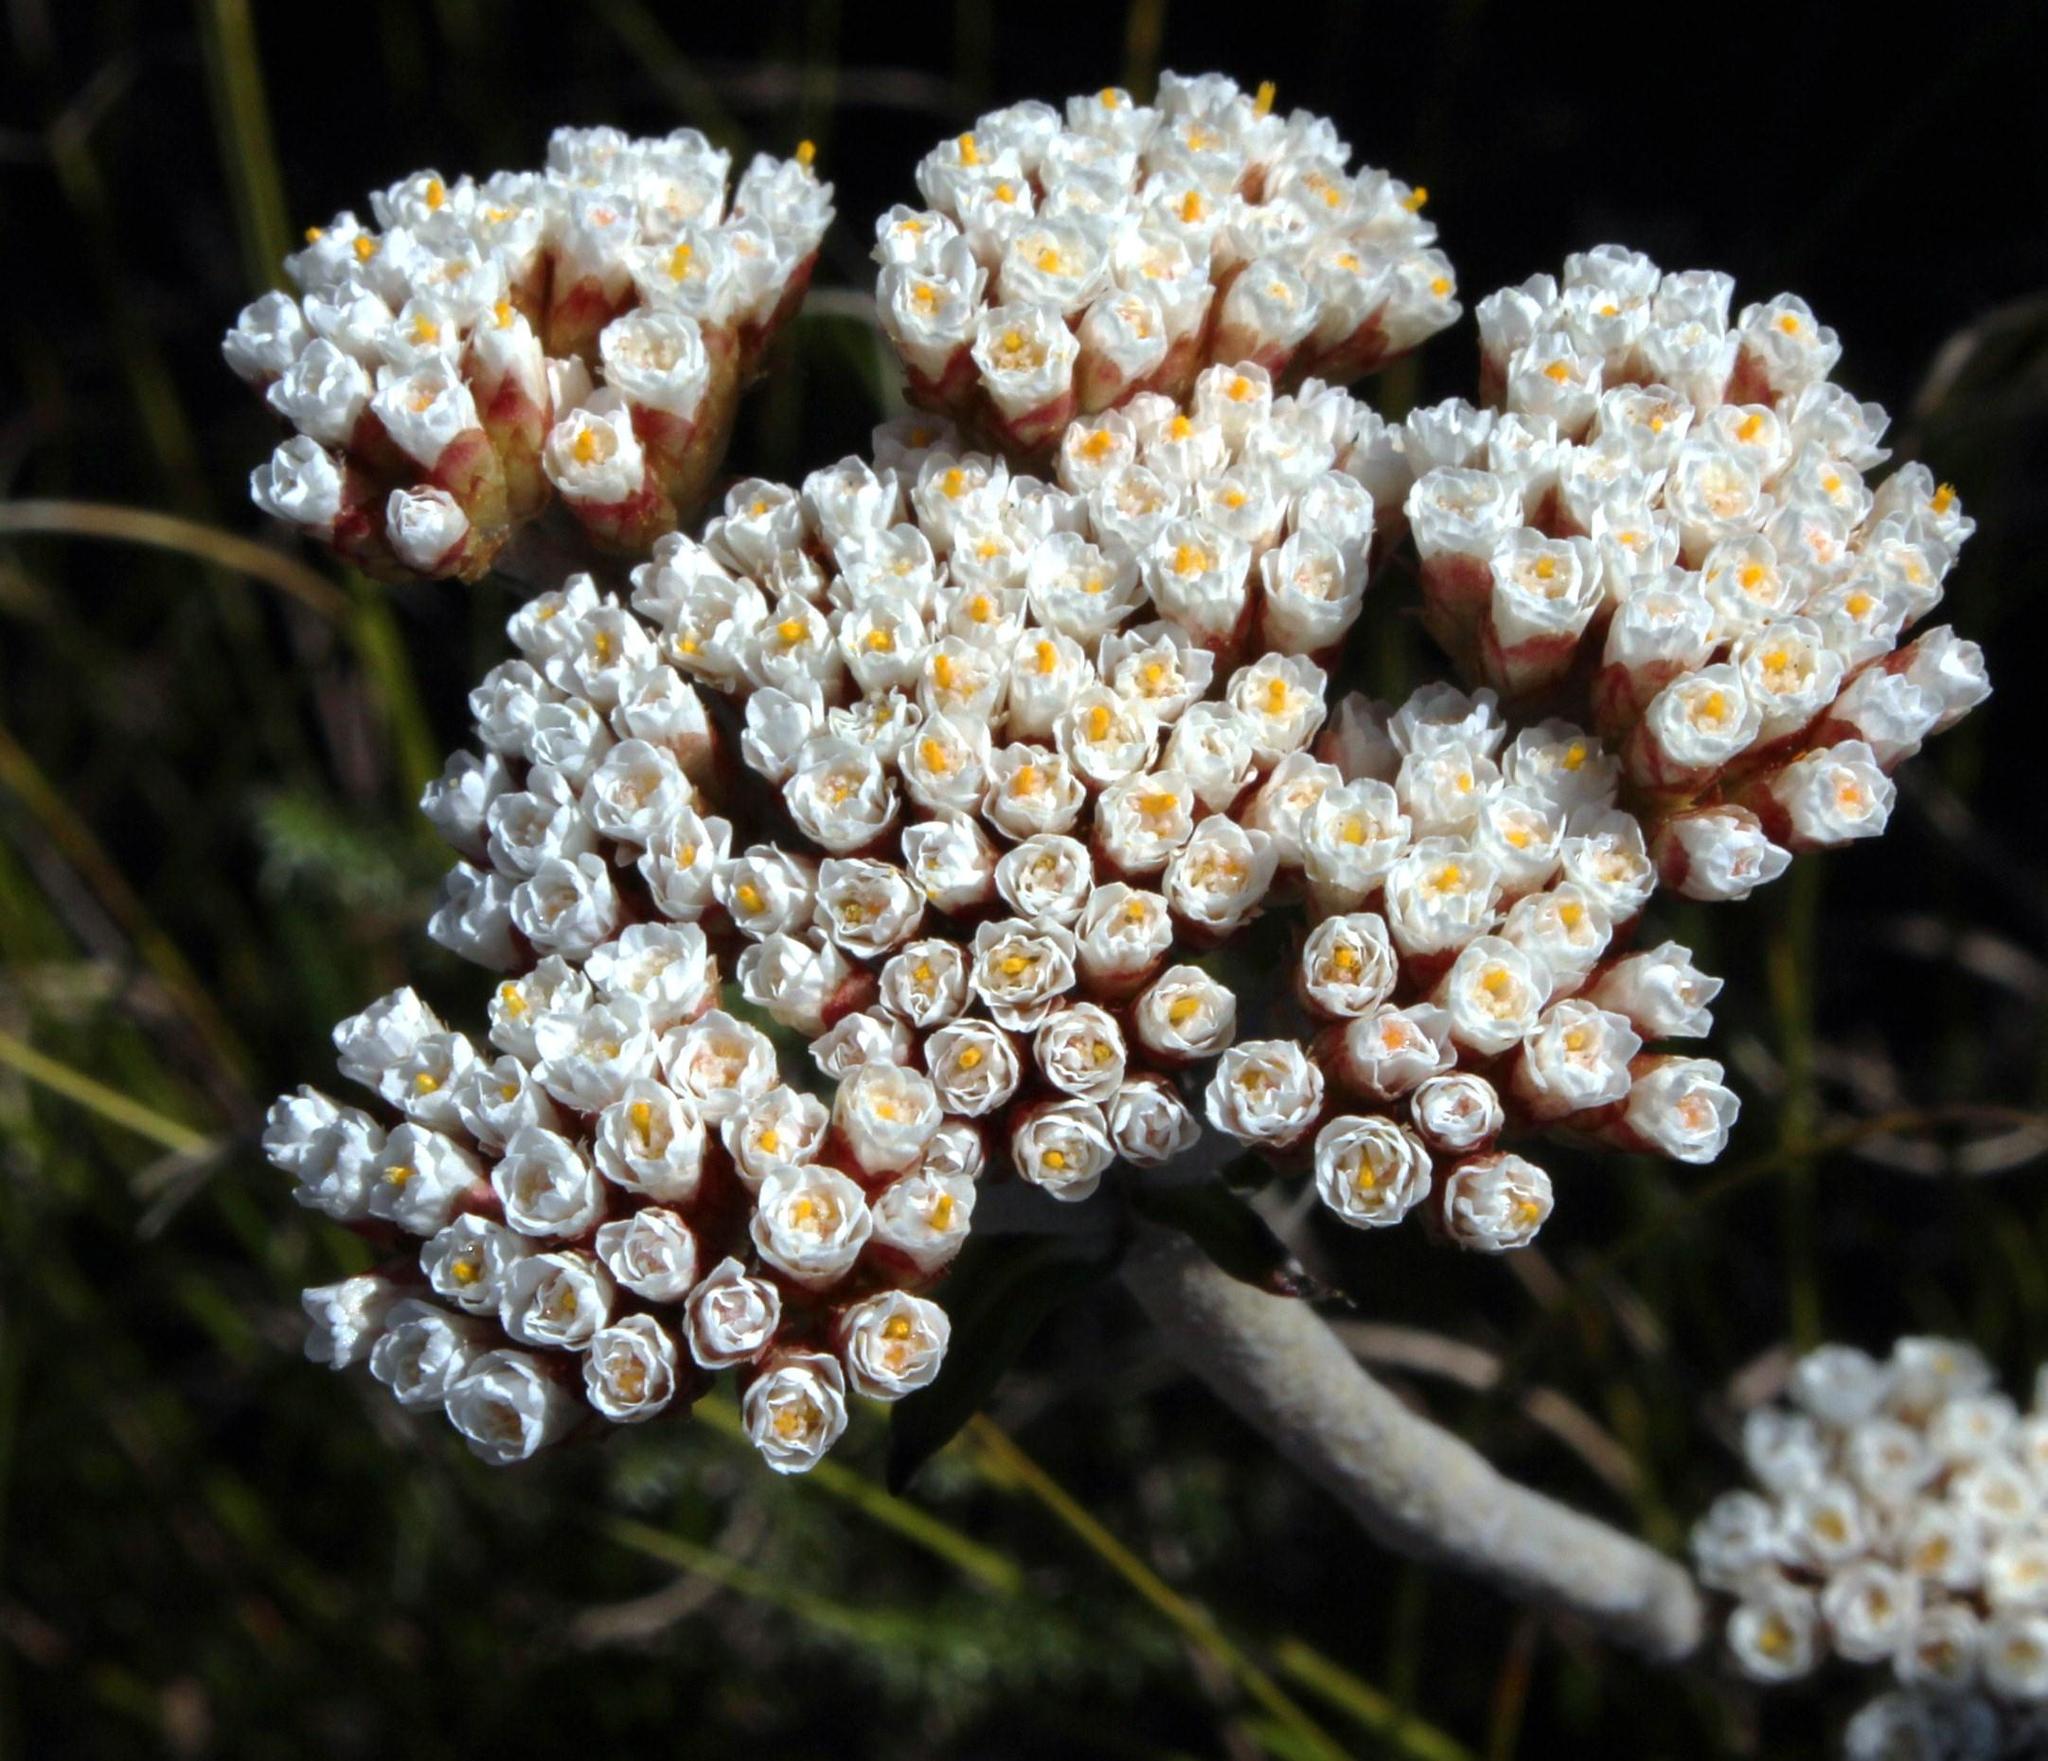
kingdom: Plantae
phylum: Tracheophyta
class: Magnoliopsida
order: Asterales
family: Asteraceae
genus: Anaxeton
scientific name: Anaxeton arborescens
